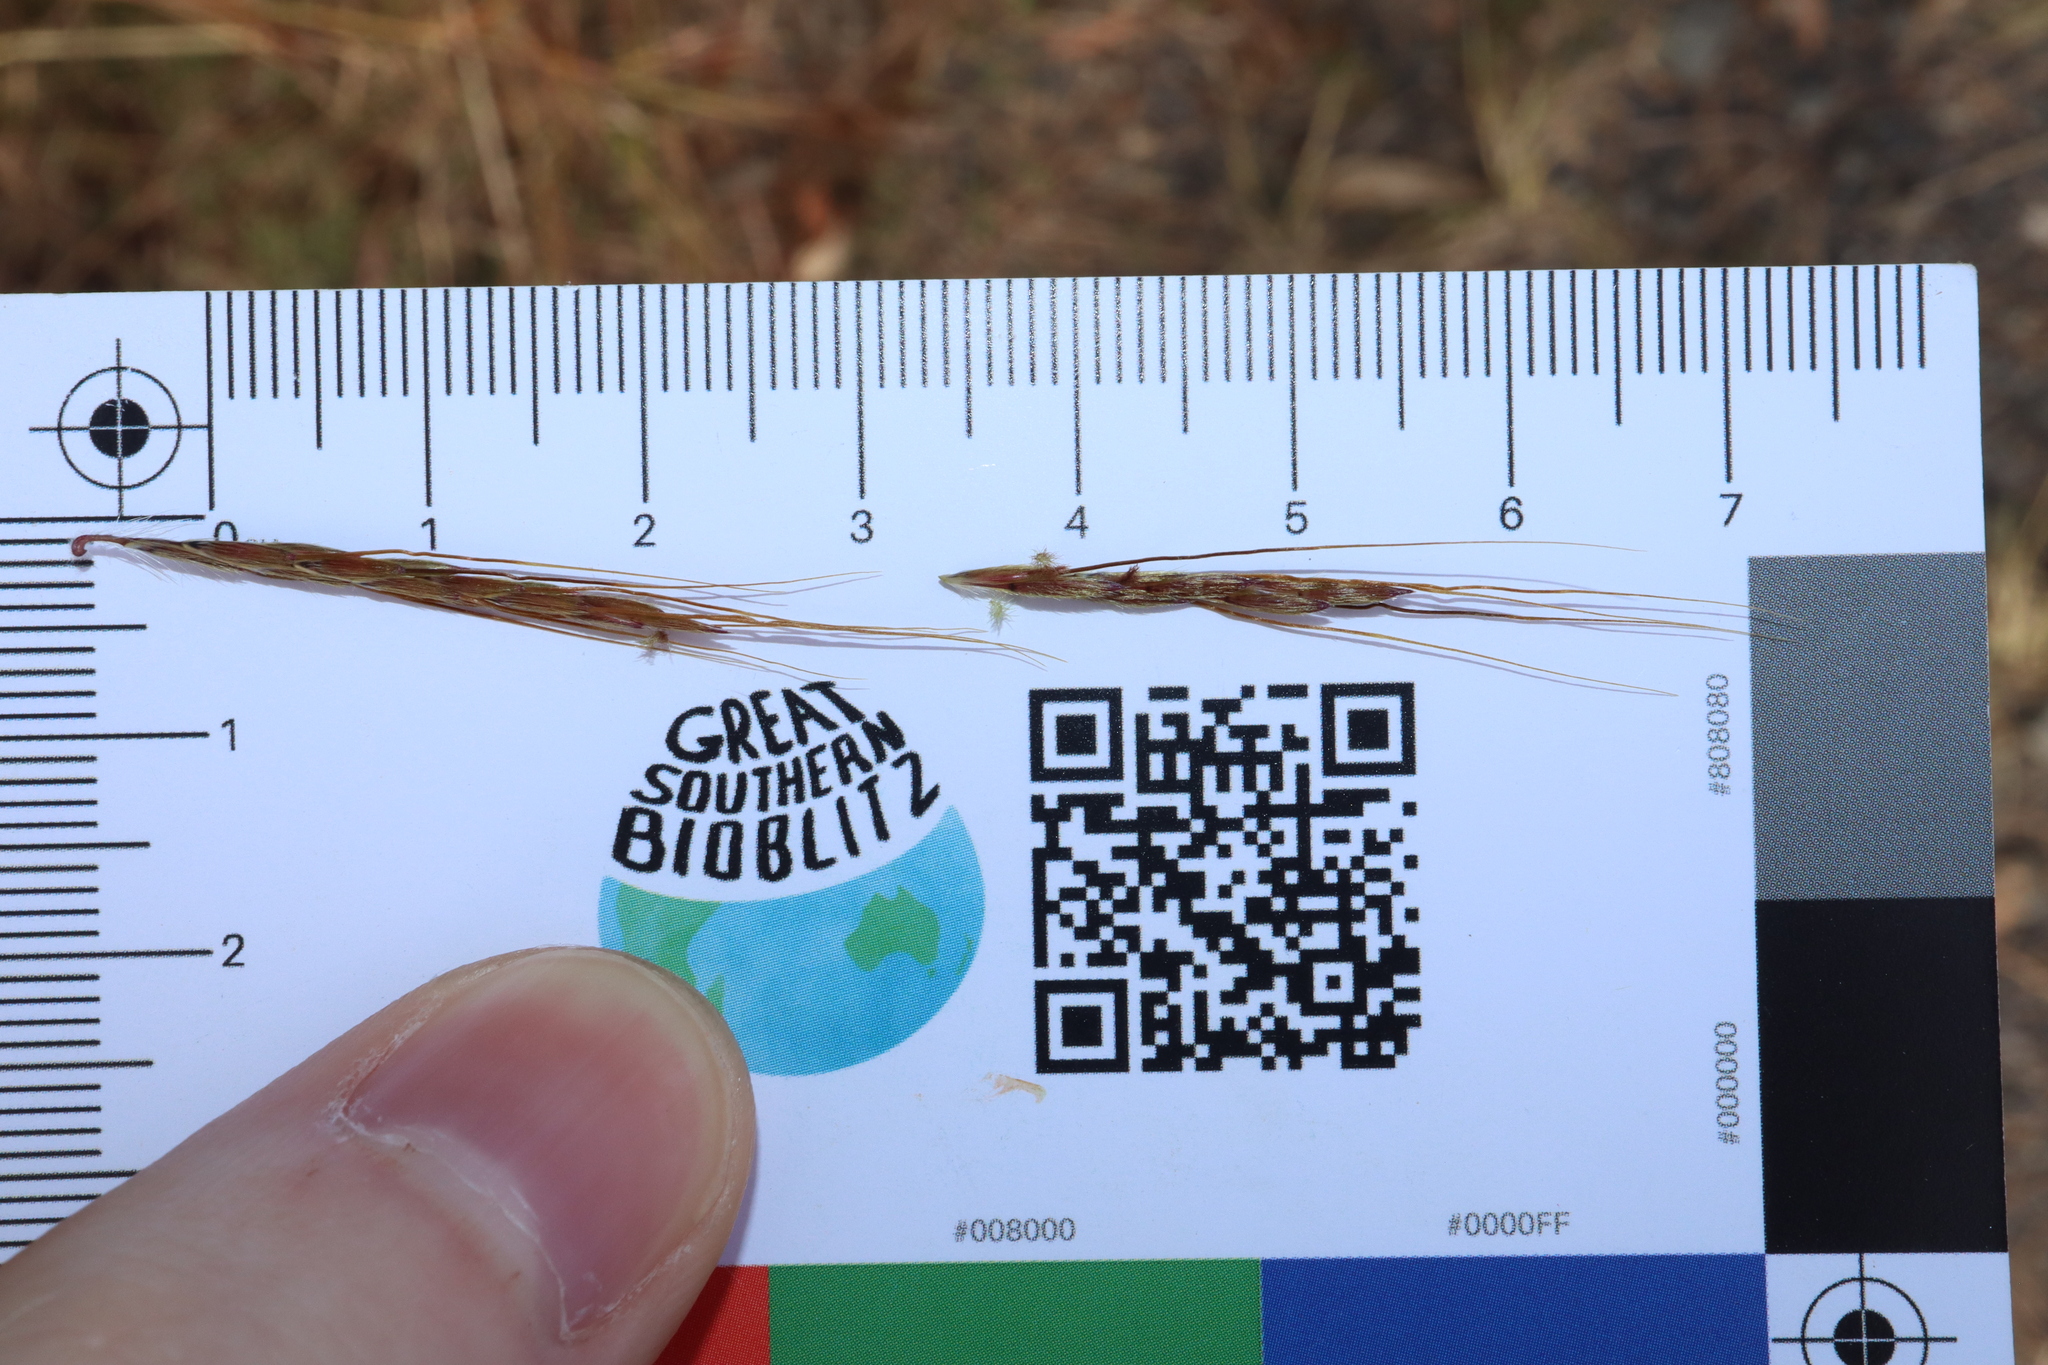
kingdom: Plantae
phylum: Tracheophyta
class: Liliopsida
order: Poales
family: Poaceae
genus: Hyparrhenia
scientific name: Hyparrhenia rufa
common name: Jaraguagrass
